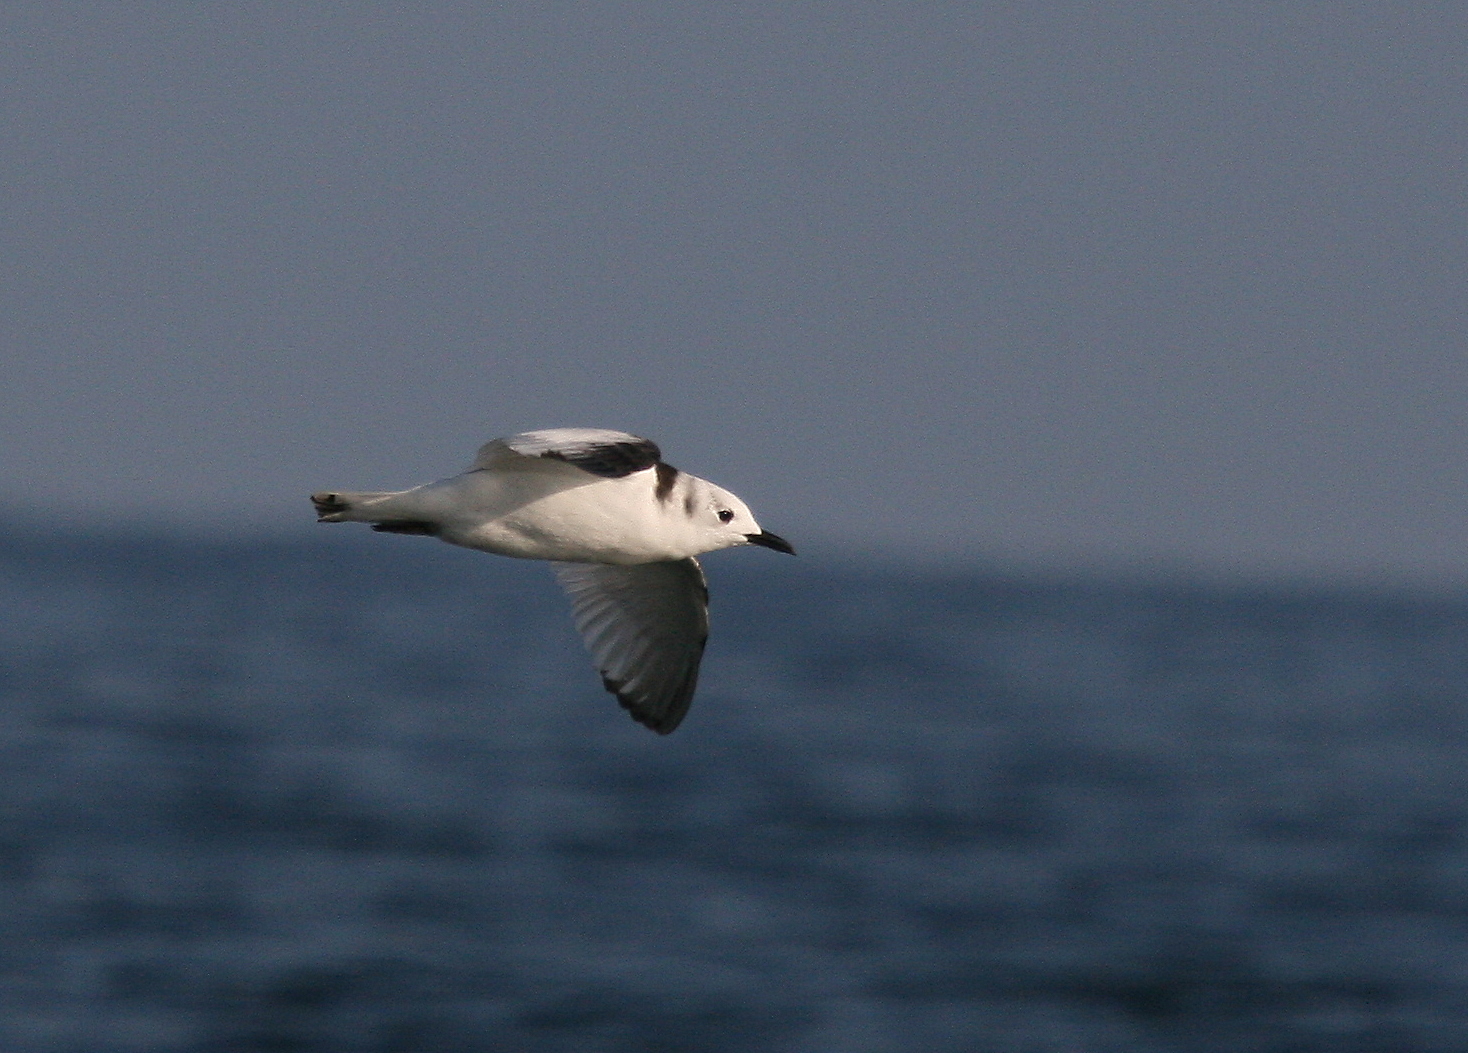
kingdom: Animalia
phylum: Chordata
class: Aves
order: Charadriiformes
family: Laridae
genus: Rissa
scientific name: Rissa tridactyla
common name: Black-legged kittiwake
